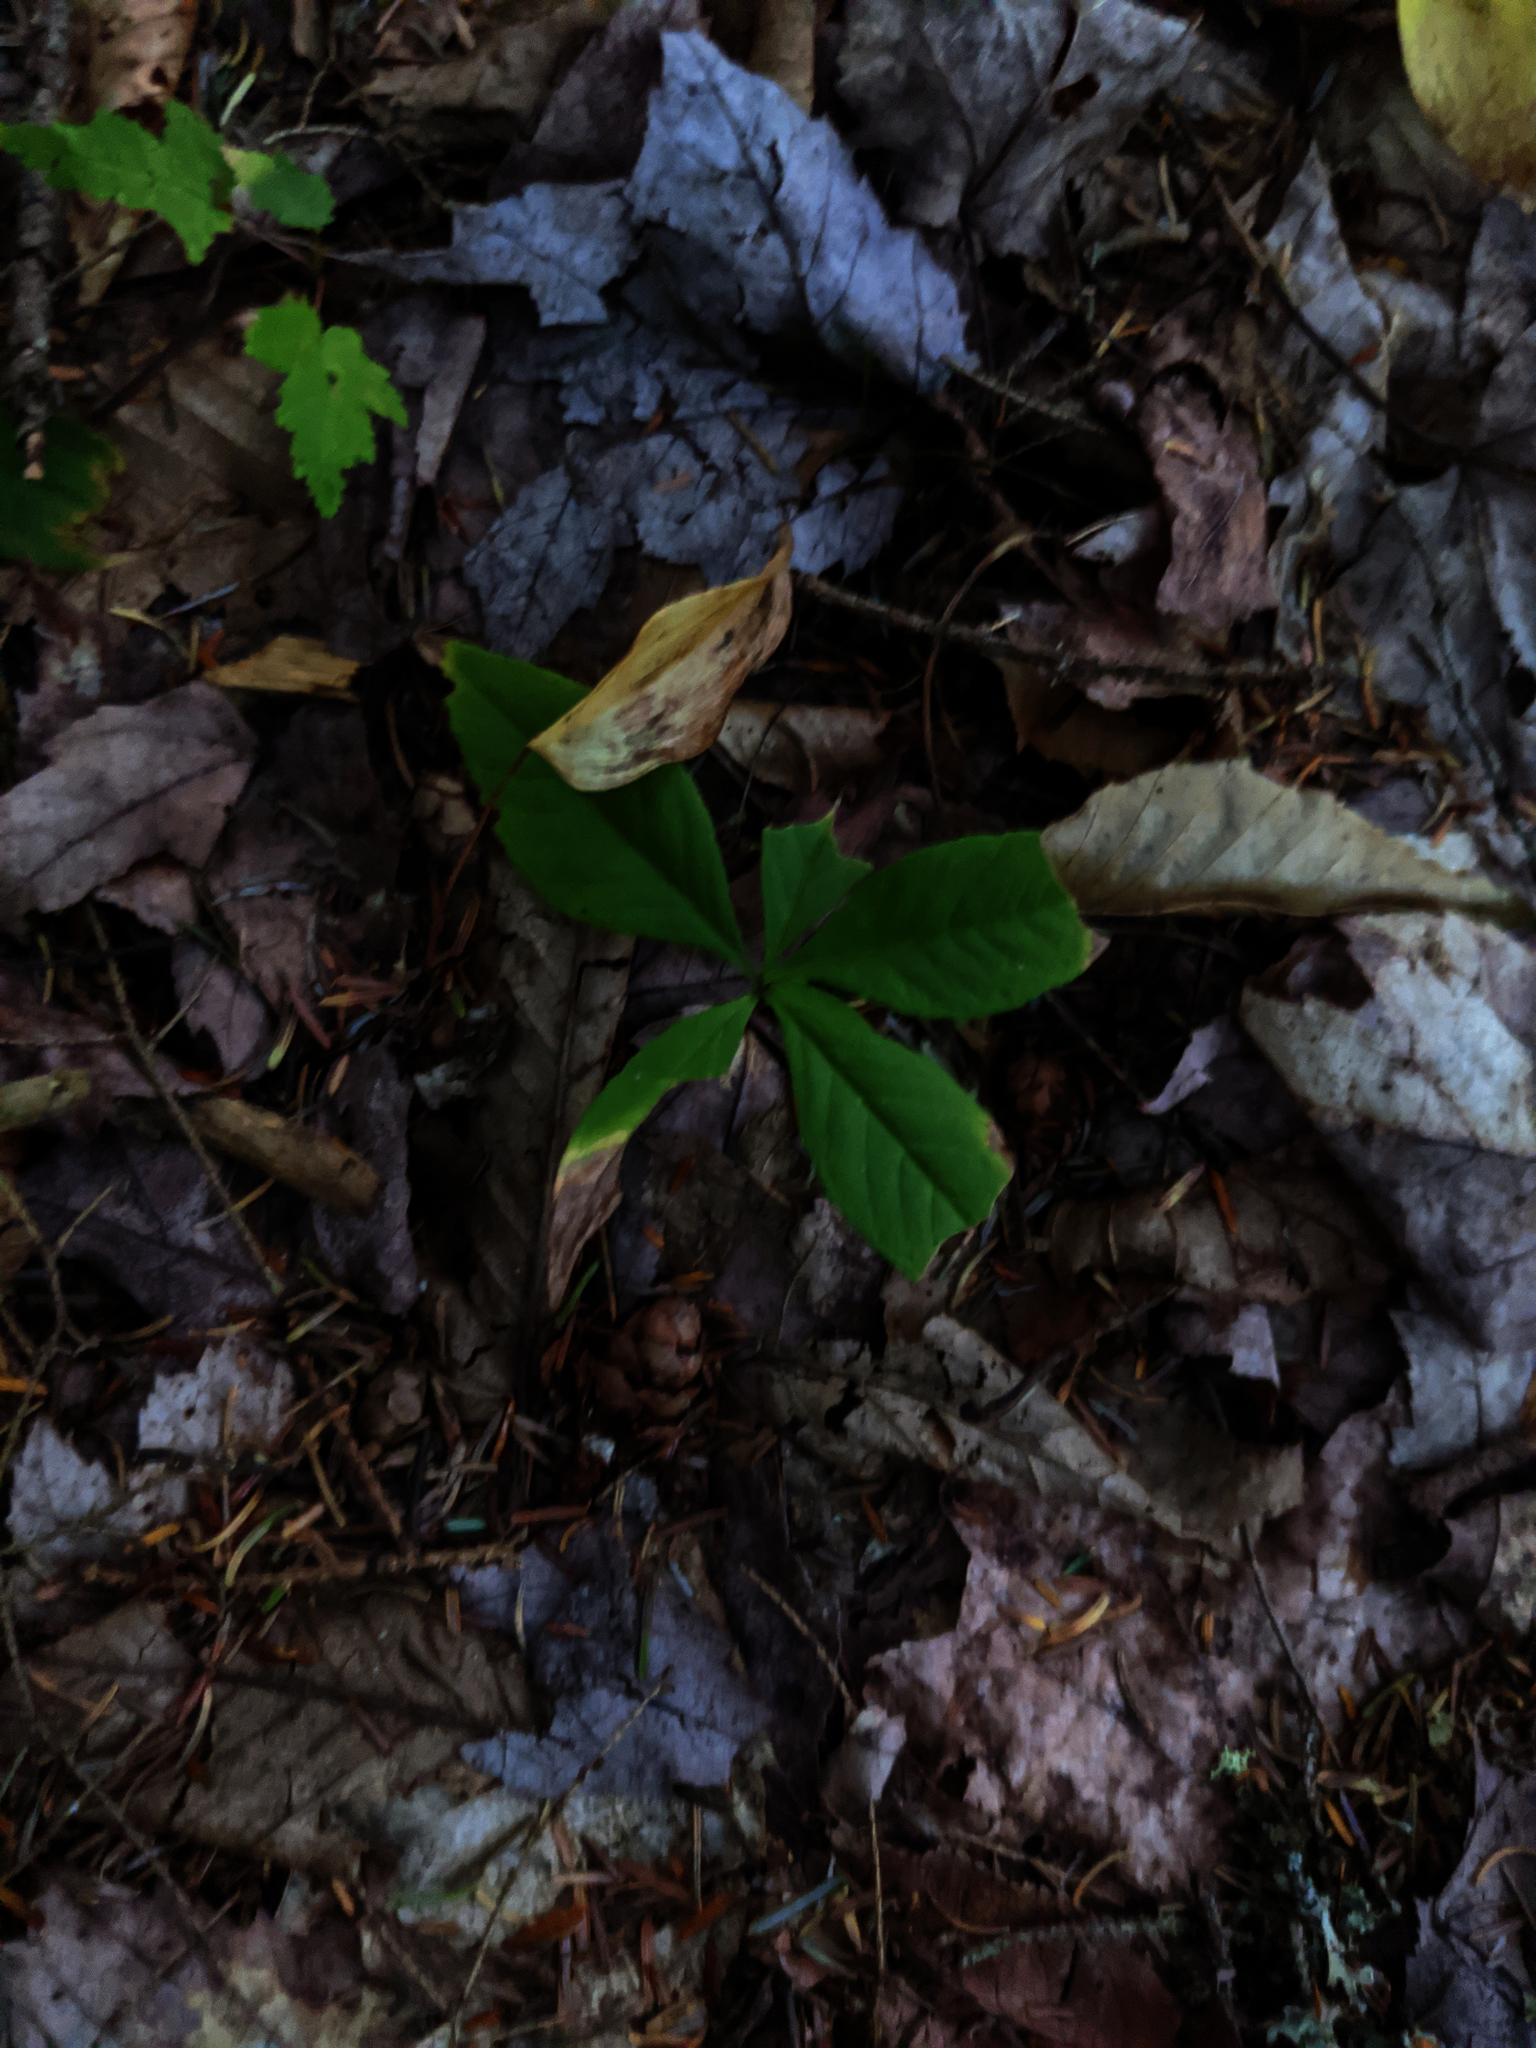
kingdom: Plantae
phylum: Tracheophyta
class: Magnoliopsida
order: Ericales
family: Primulaceae
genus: Lysimachia
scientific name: Lysimachia borealis
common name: American starflower
